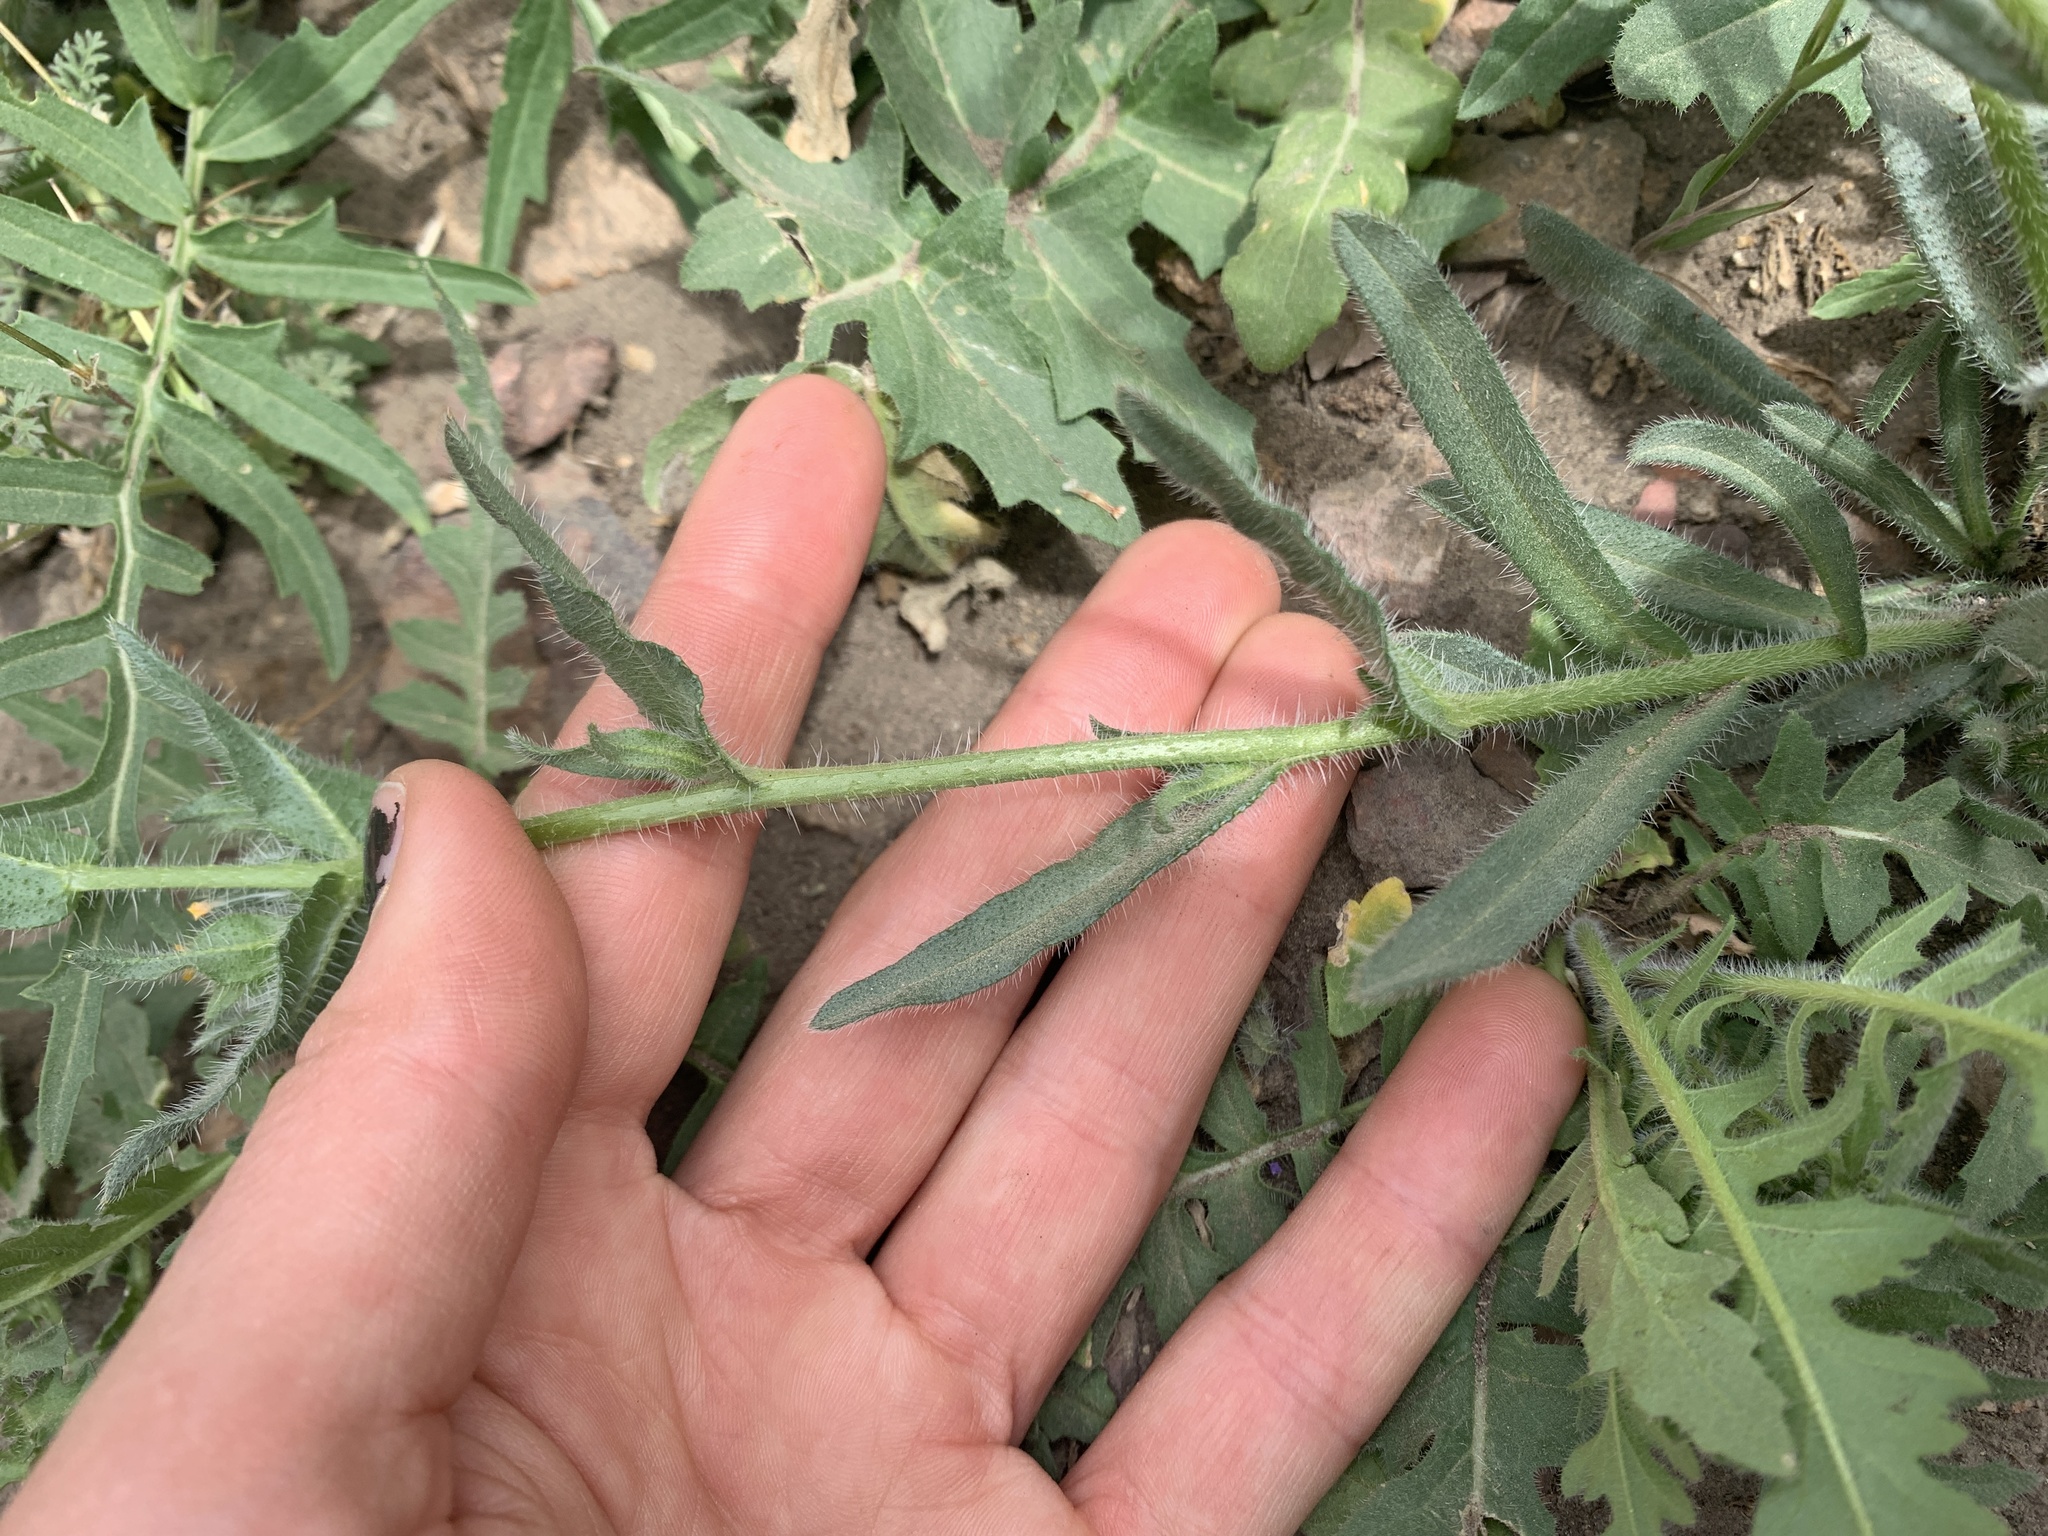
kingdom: Plantae
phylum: Tracheophyta
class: Magnoliopsida
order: Boraginales
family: Boraginaceae
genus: Amsinckia
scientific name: Amsinckia menziesii
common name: Menzies' fiddleneck
